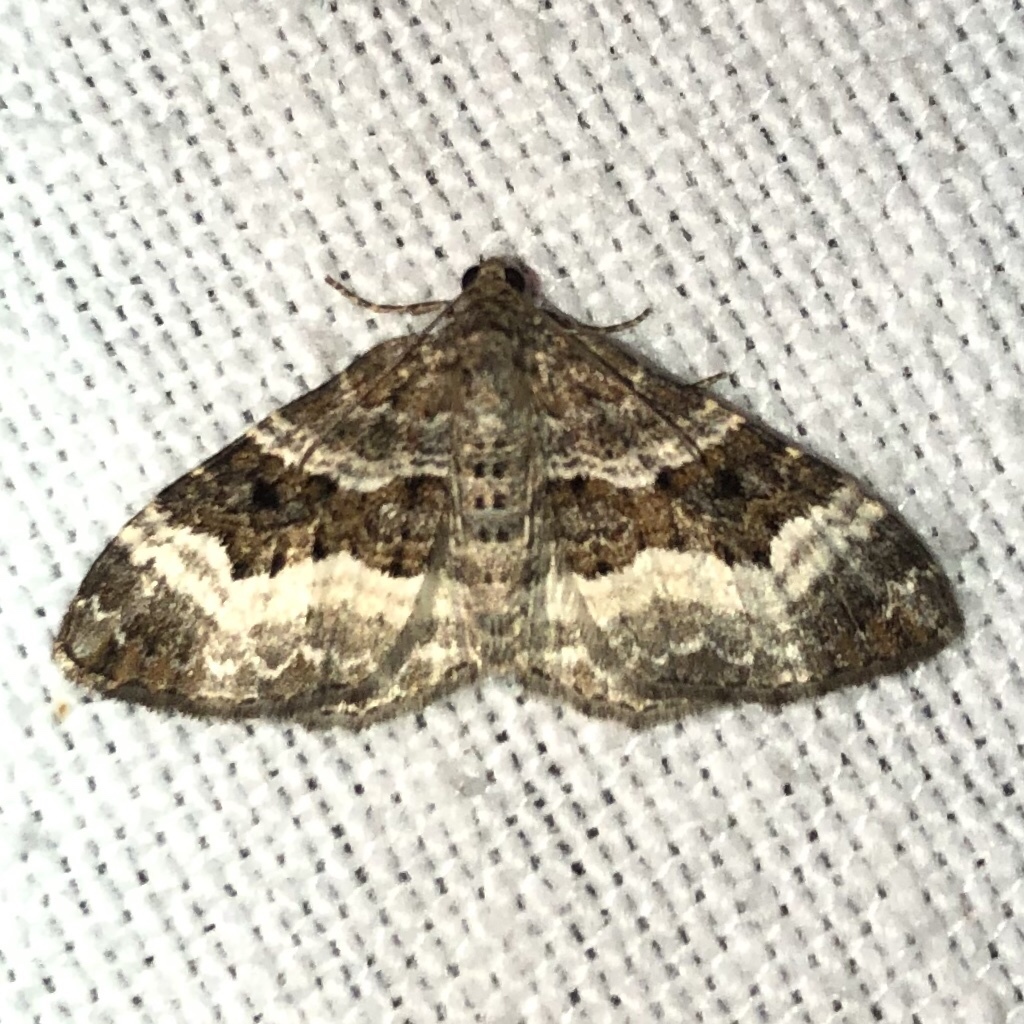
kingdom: Animalia
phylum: Arthropoda
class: Insecta
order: Lepidoptera
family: Geometridae
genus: Epirrhoe
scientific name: Epirrhoe alternata
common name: Common carpet
